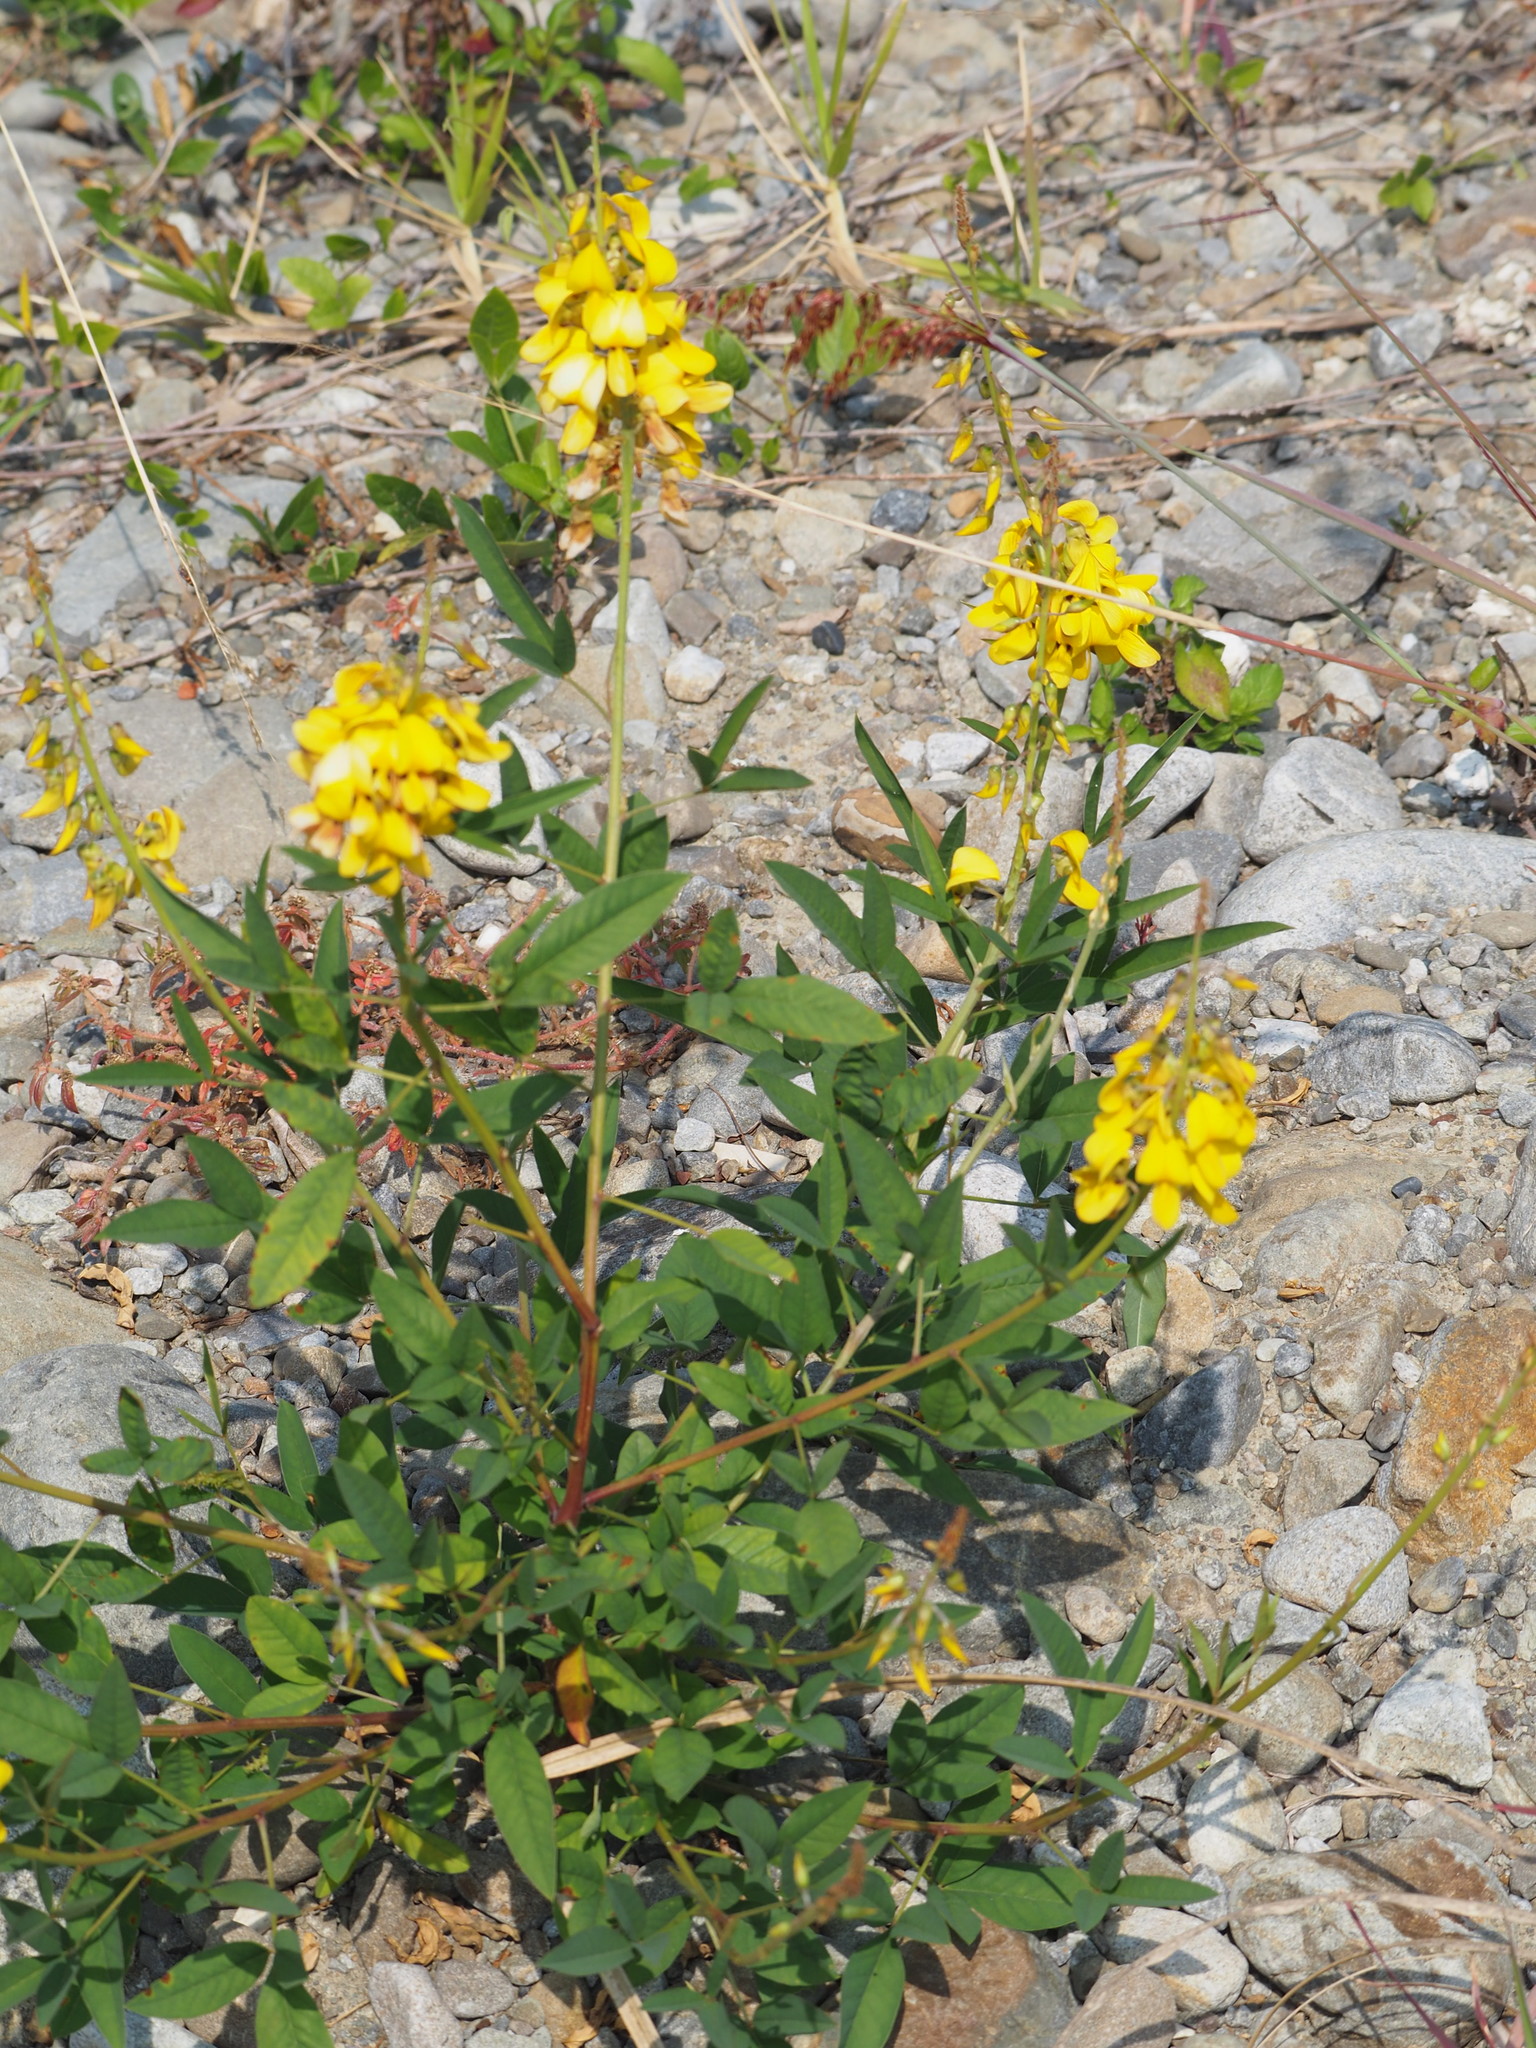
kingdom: Plantae
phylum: Tracheophyta
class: Magnoliopsida
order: Fabales
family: Fabaceae
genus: Crotalaria
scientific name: Crotalaria trichotoma
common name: West indian rattlebox
